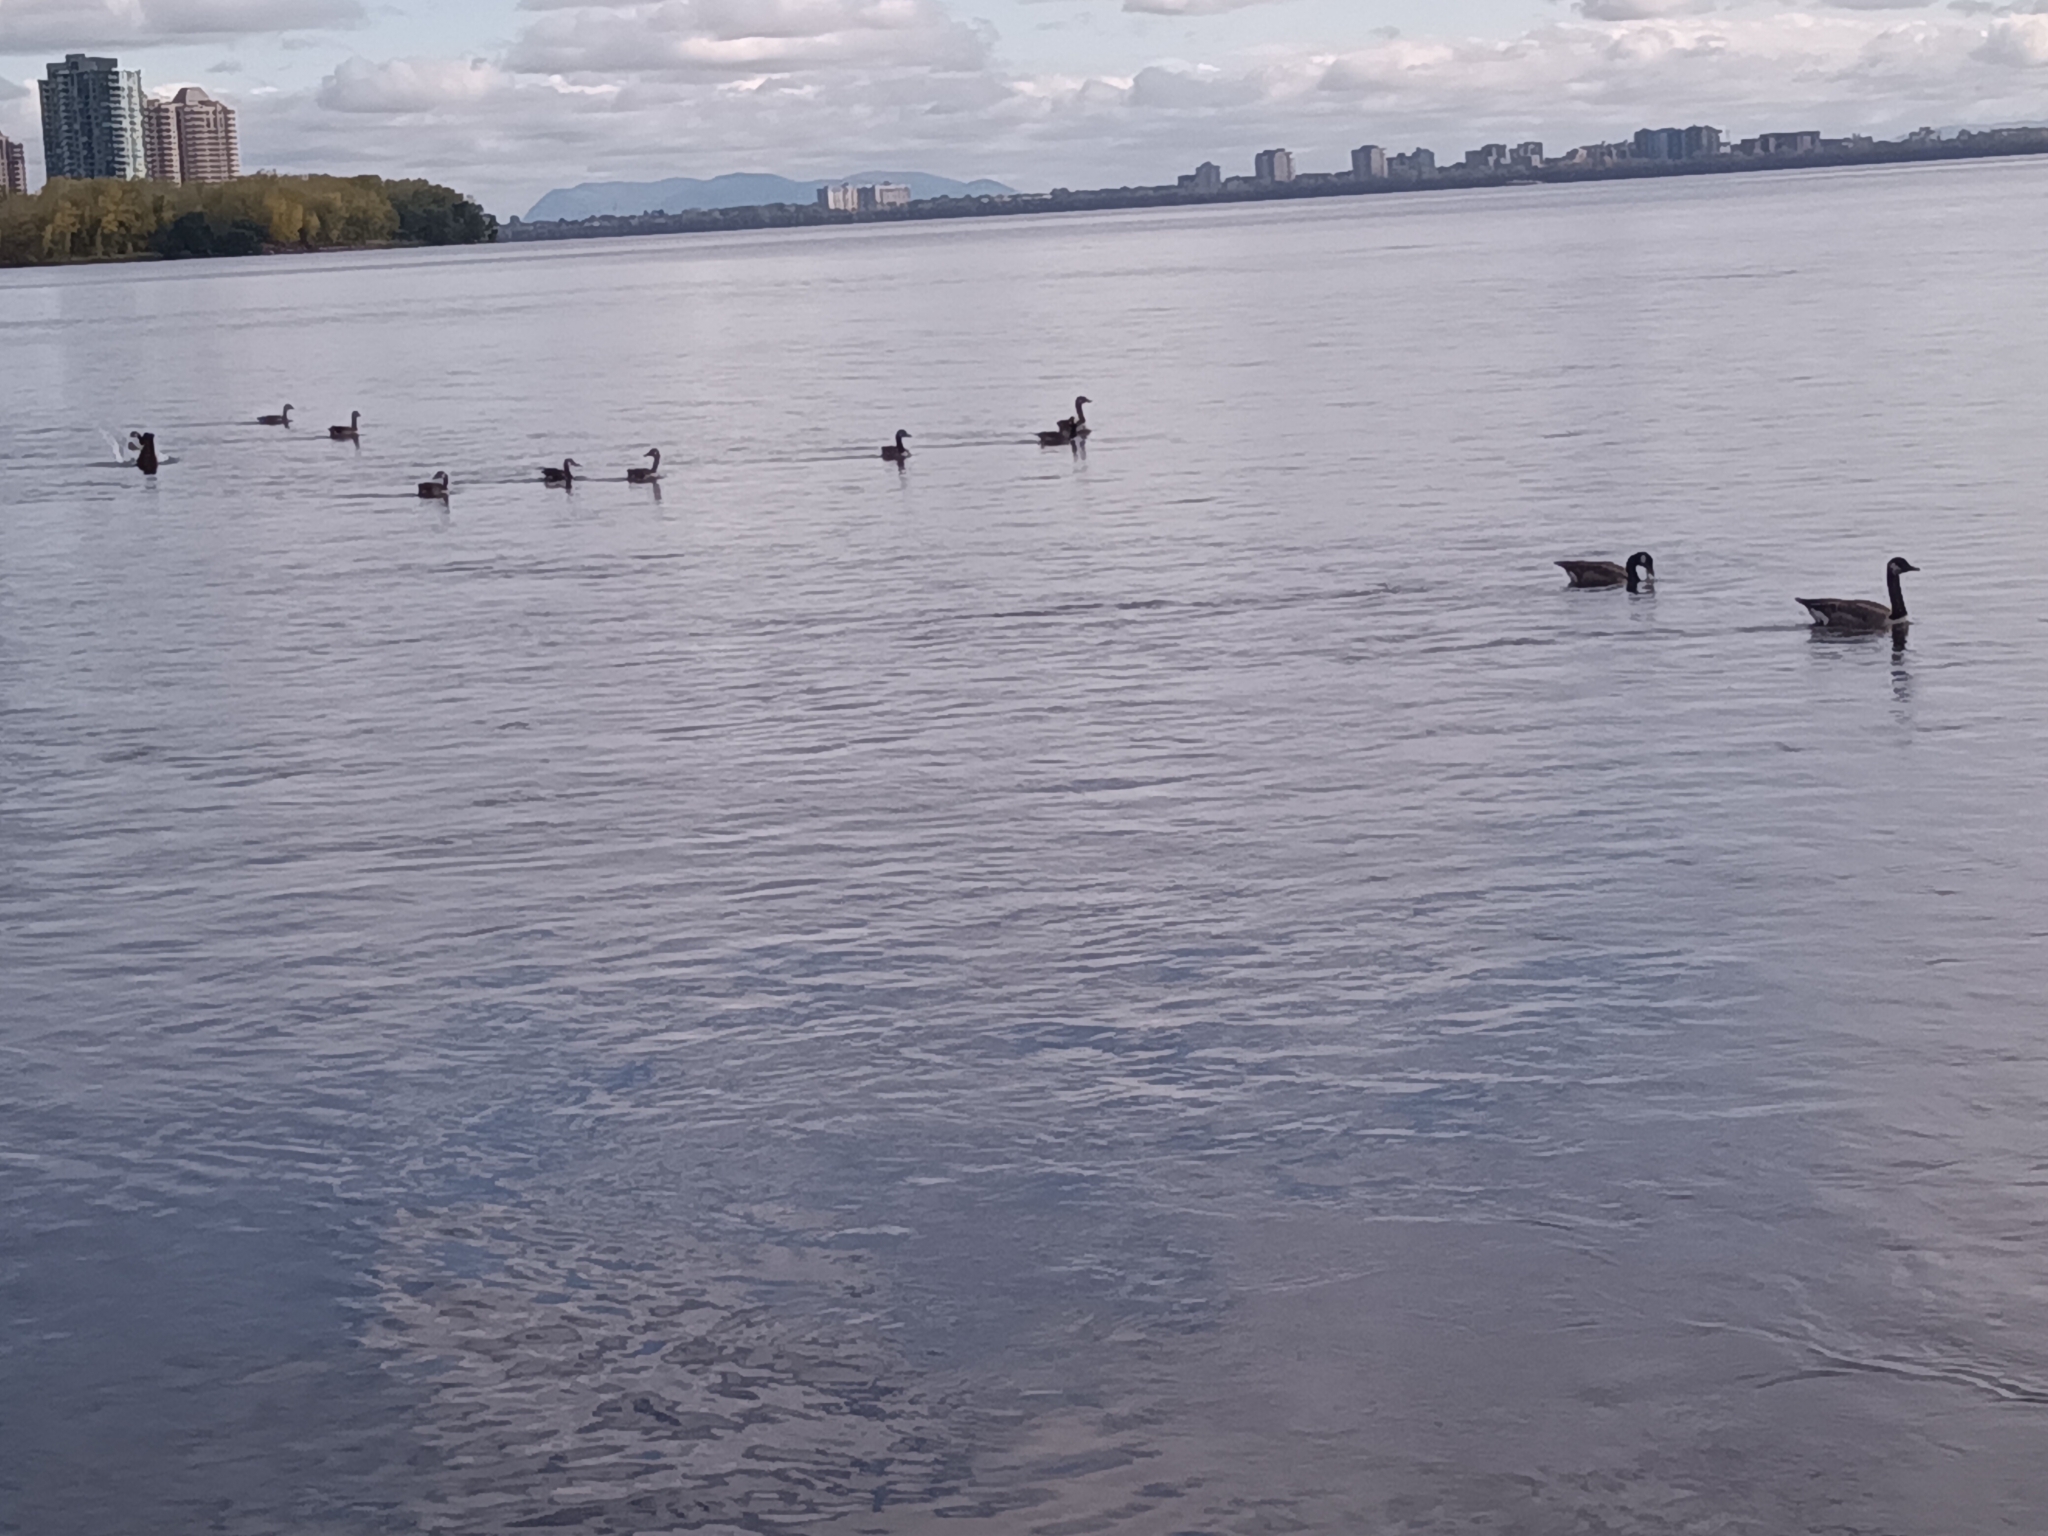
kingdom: Animalia
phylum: Chordata
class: Aves
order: Anseriformes
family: Anatidae
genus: Branta
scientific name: Branta canadensis
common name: Canada goose
